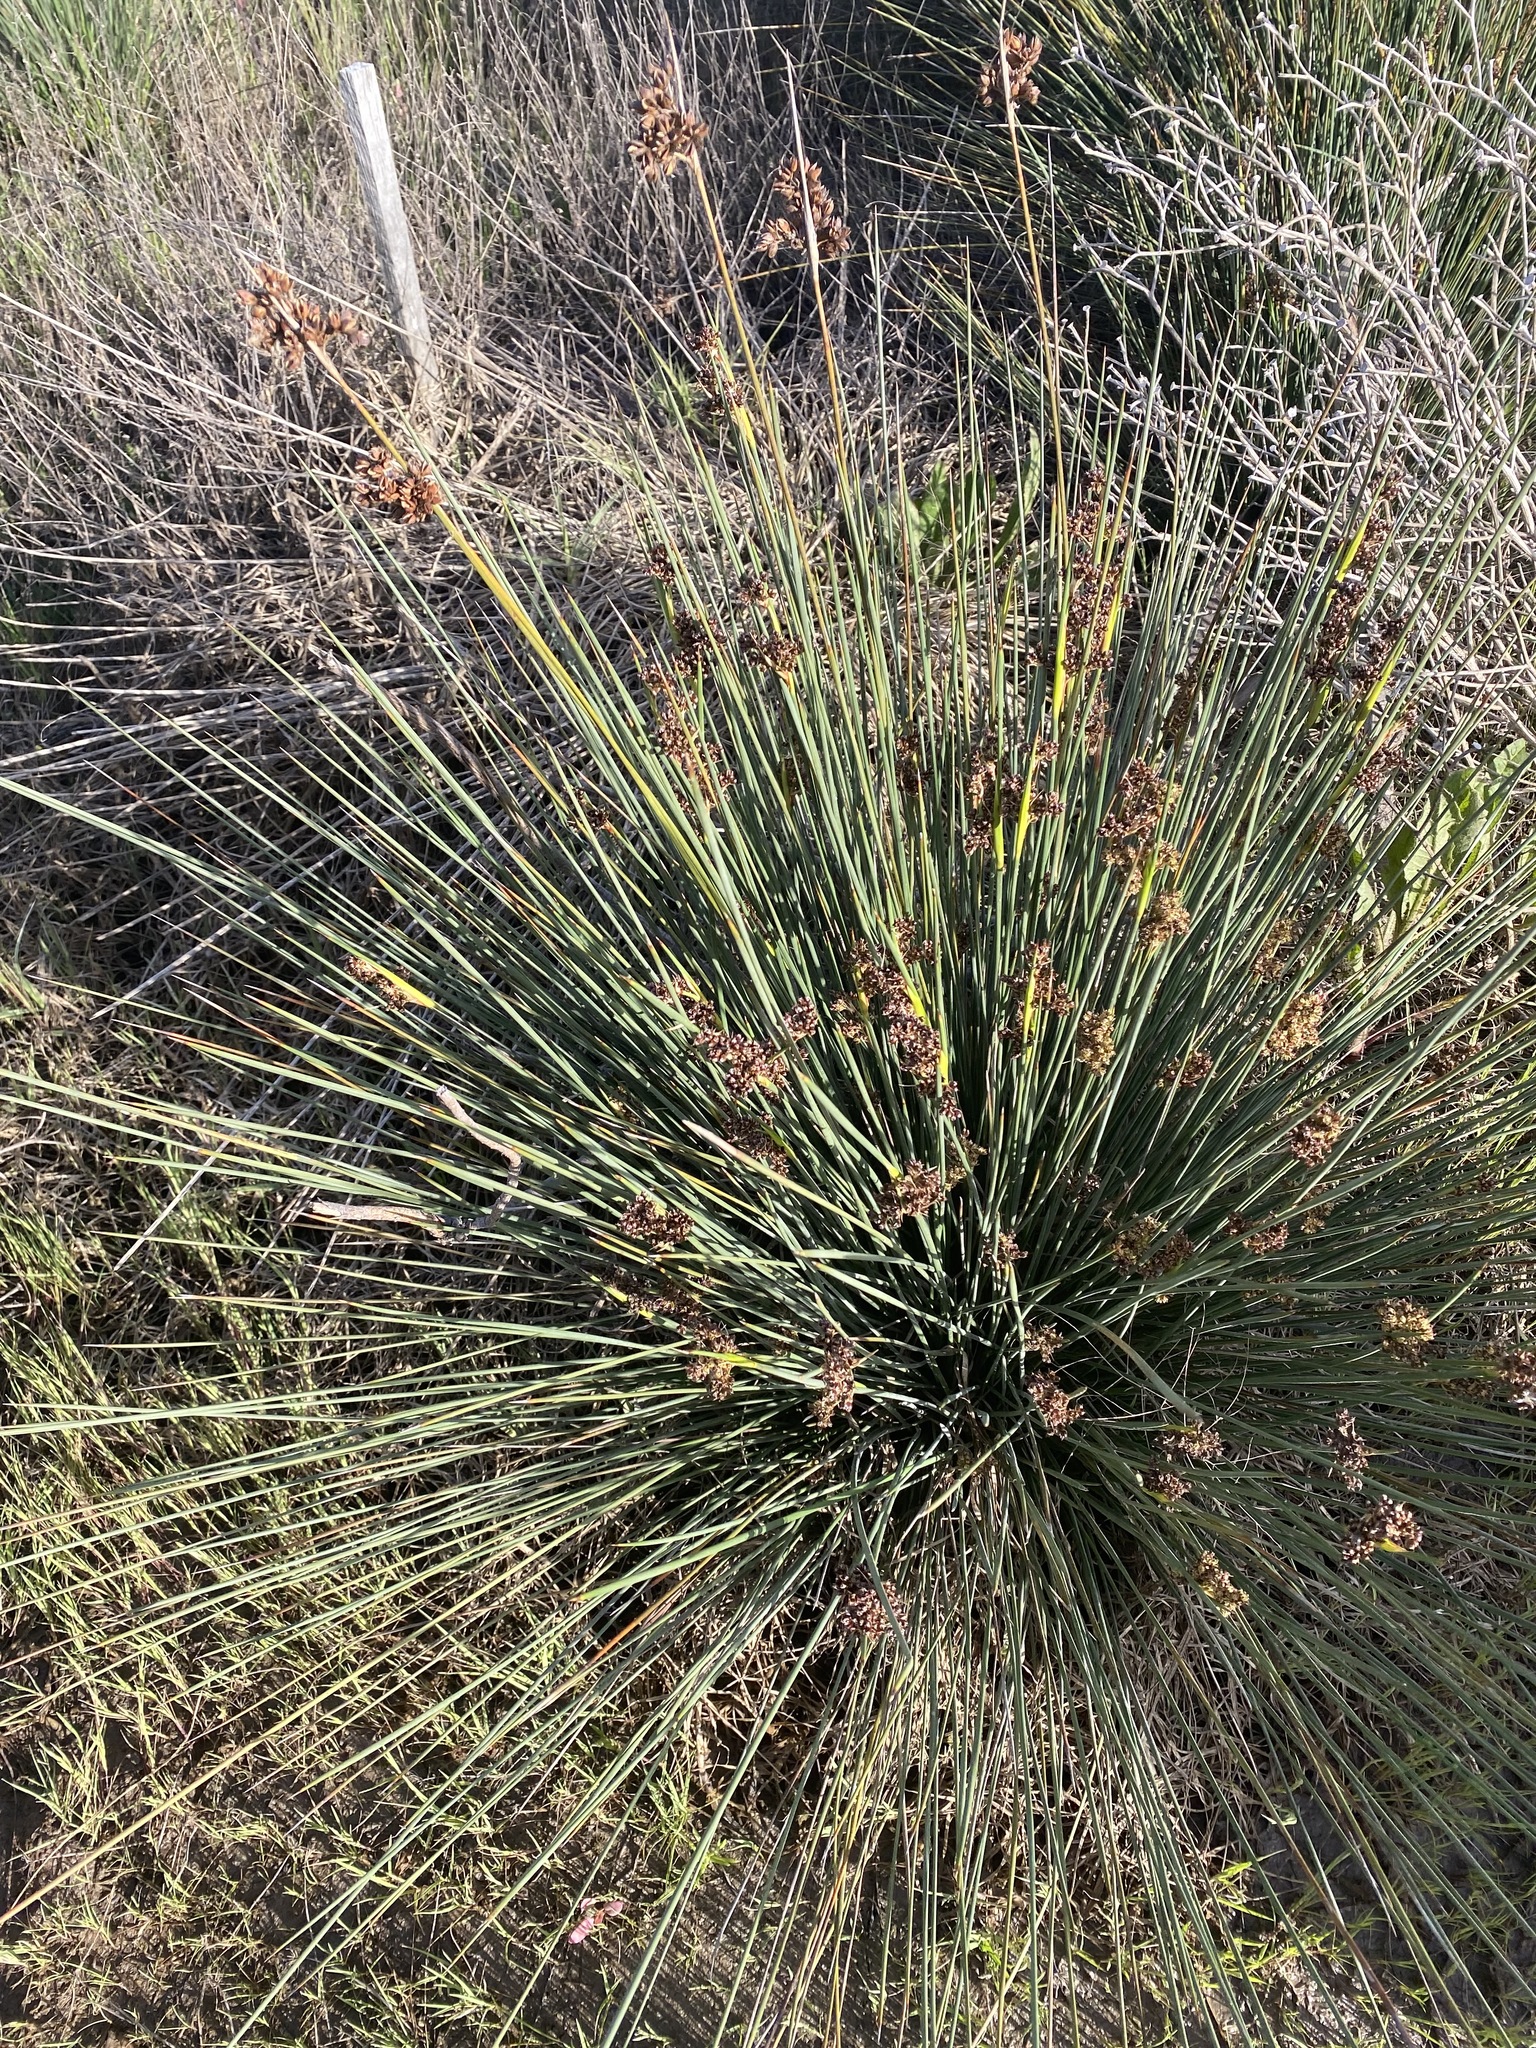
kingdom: Plantae
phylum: Tracheophyta
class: Liliopsida
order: Poales
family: Juncaceae
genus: Juncus
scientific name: Juncus acutus
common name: Sharp rush
